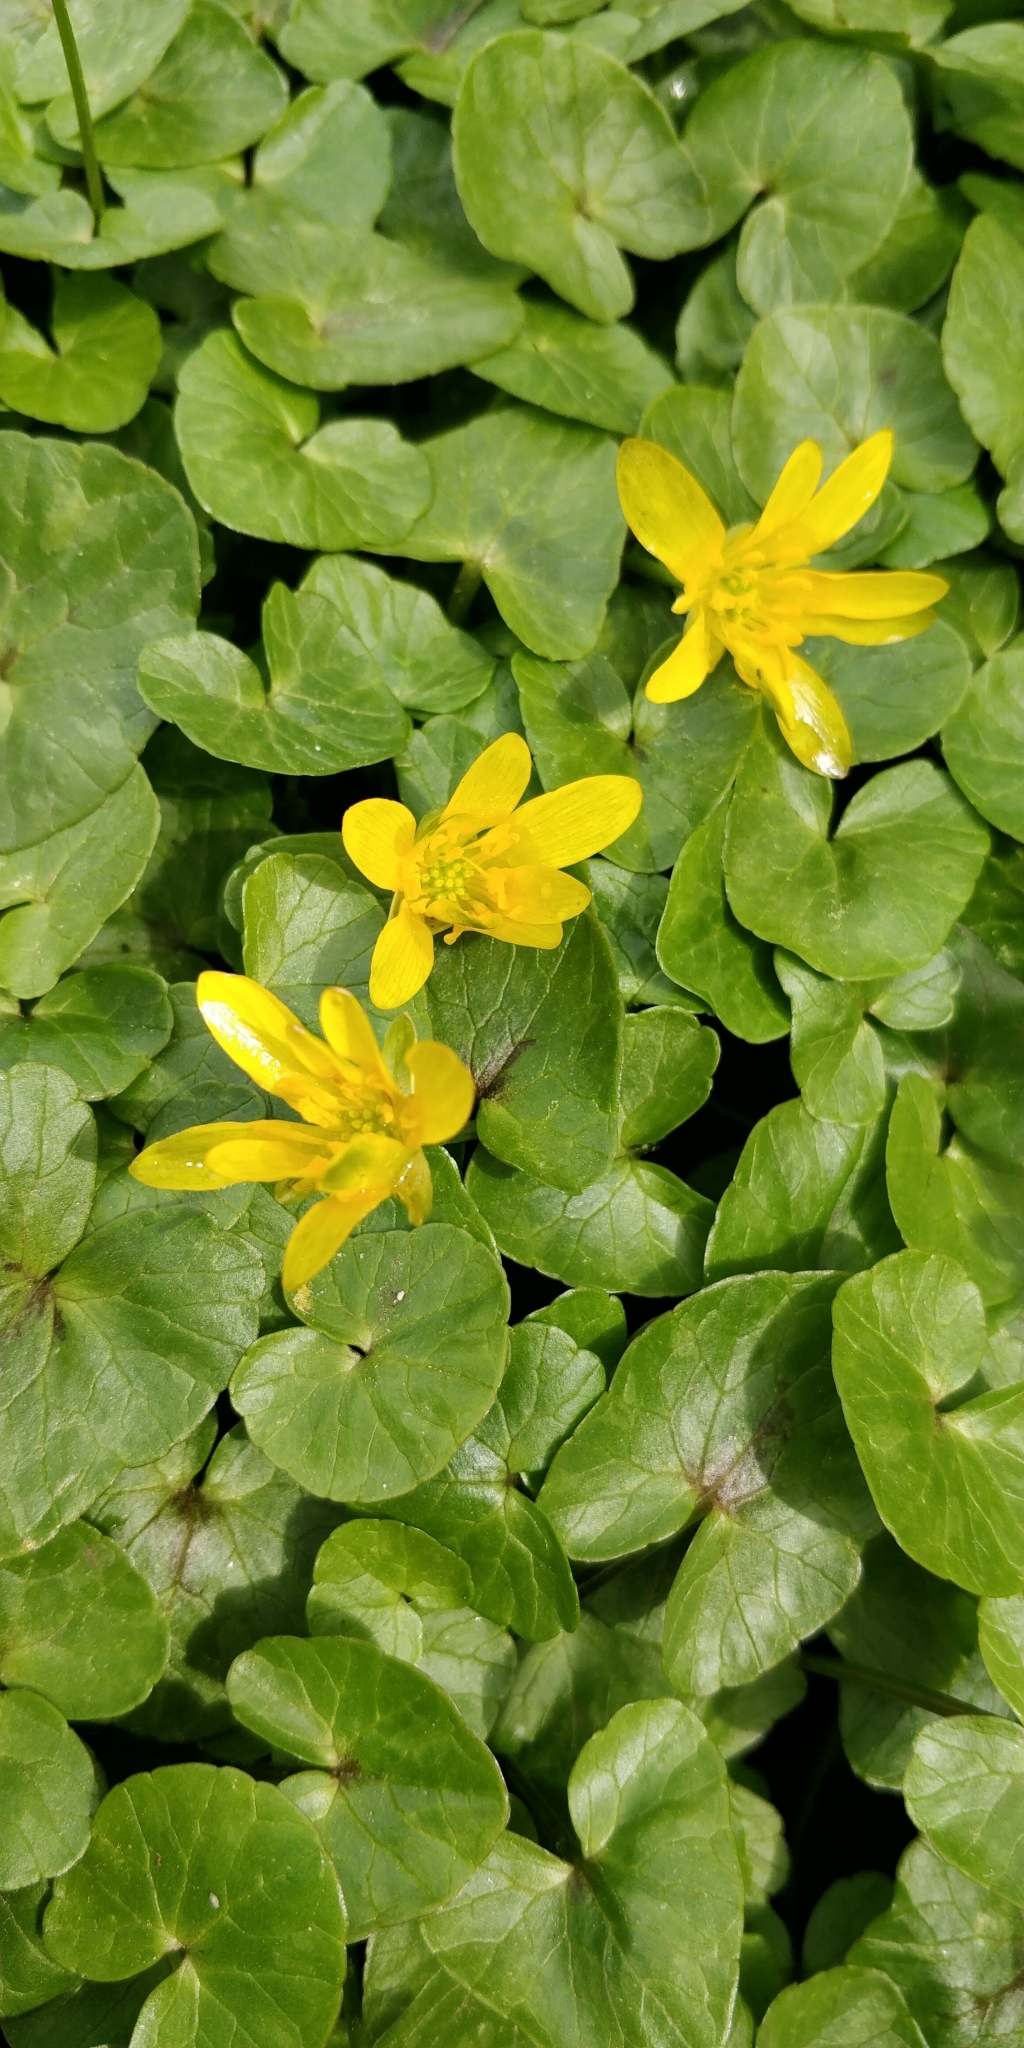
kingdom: Plantae
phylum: Tracheophyta
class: Magnoliopsida
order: Ranunculales
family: Ranunculaceae
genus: Ficaria
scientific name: Ficaria verna
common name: Lesser celandine
